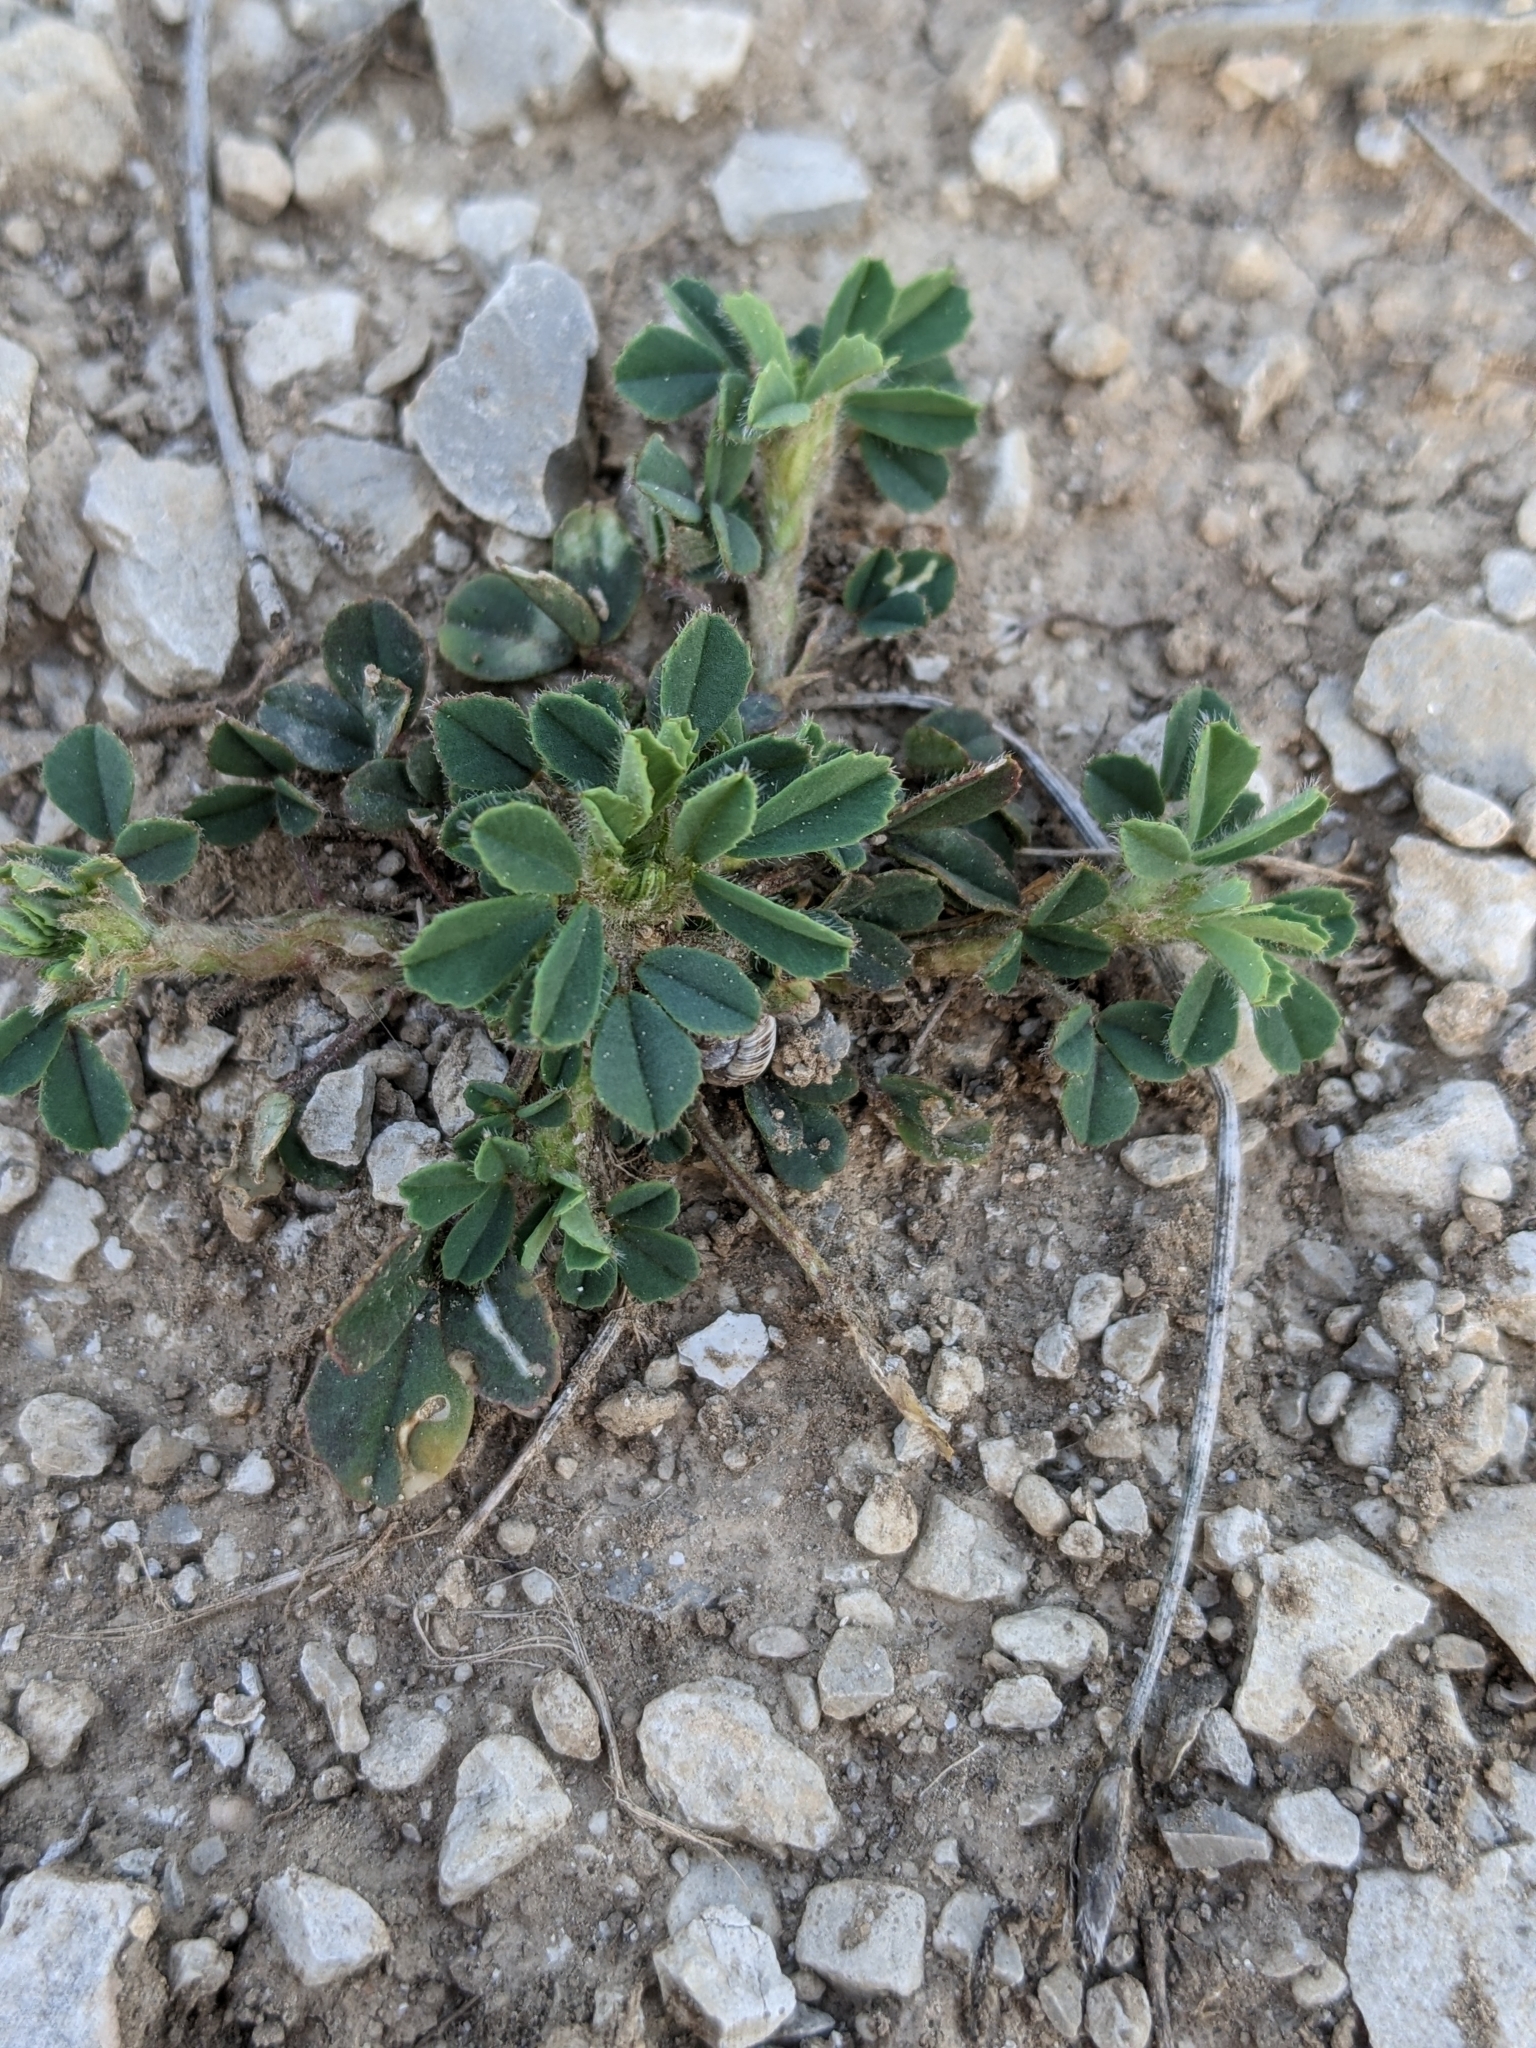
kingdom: Plantae
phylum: Tracheophyta
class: Magnoliopsida
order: Fabales
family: Fabaceae
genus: Trigonella
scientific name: Trigonella gladiata
